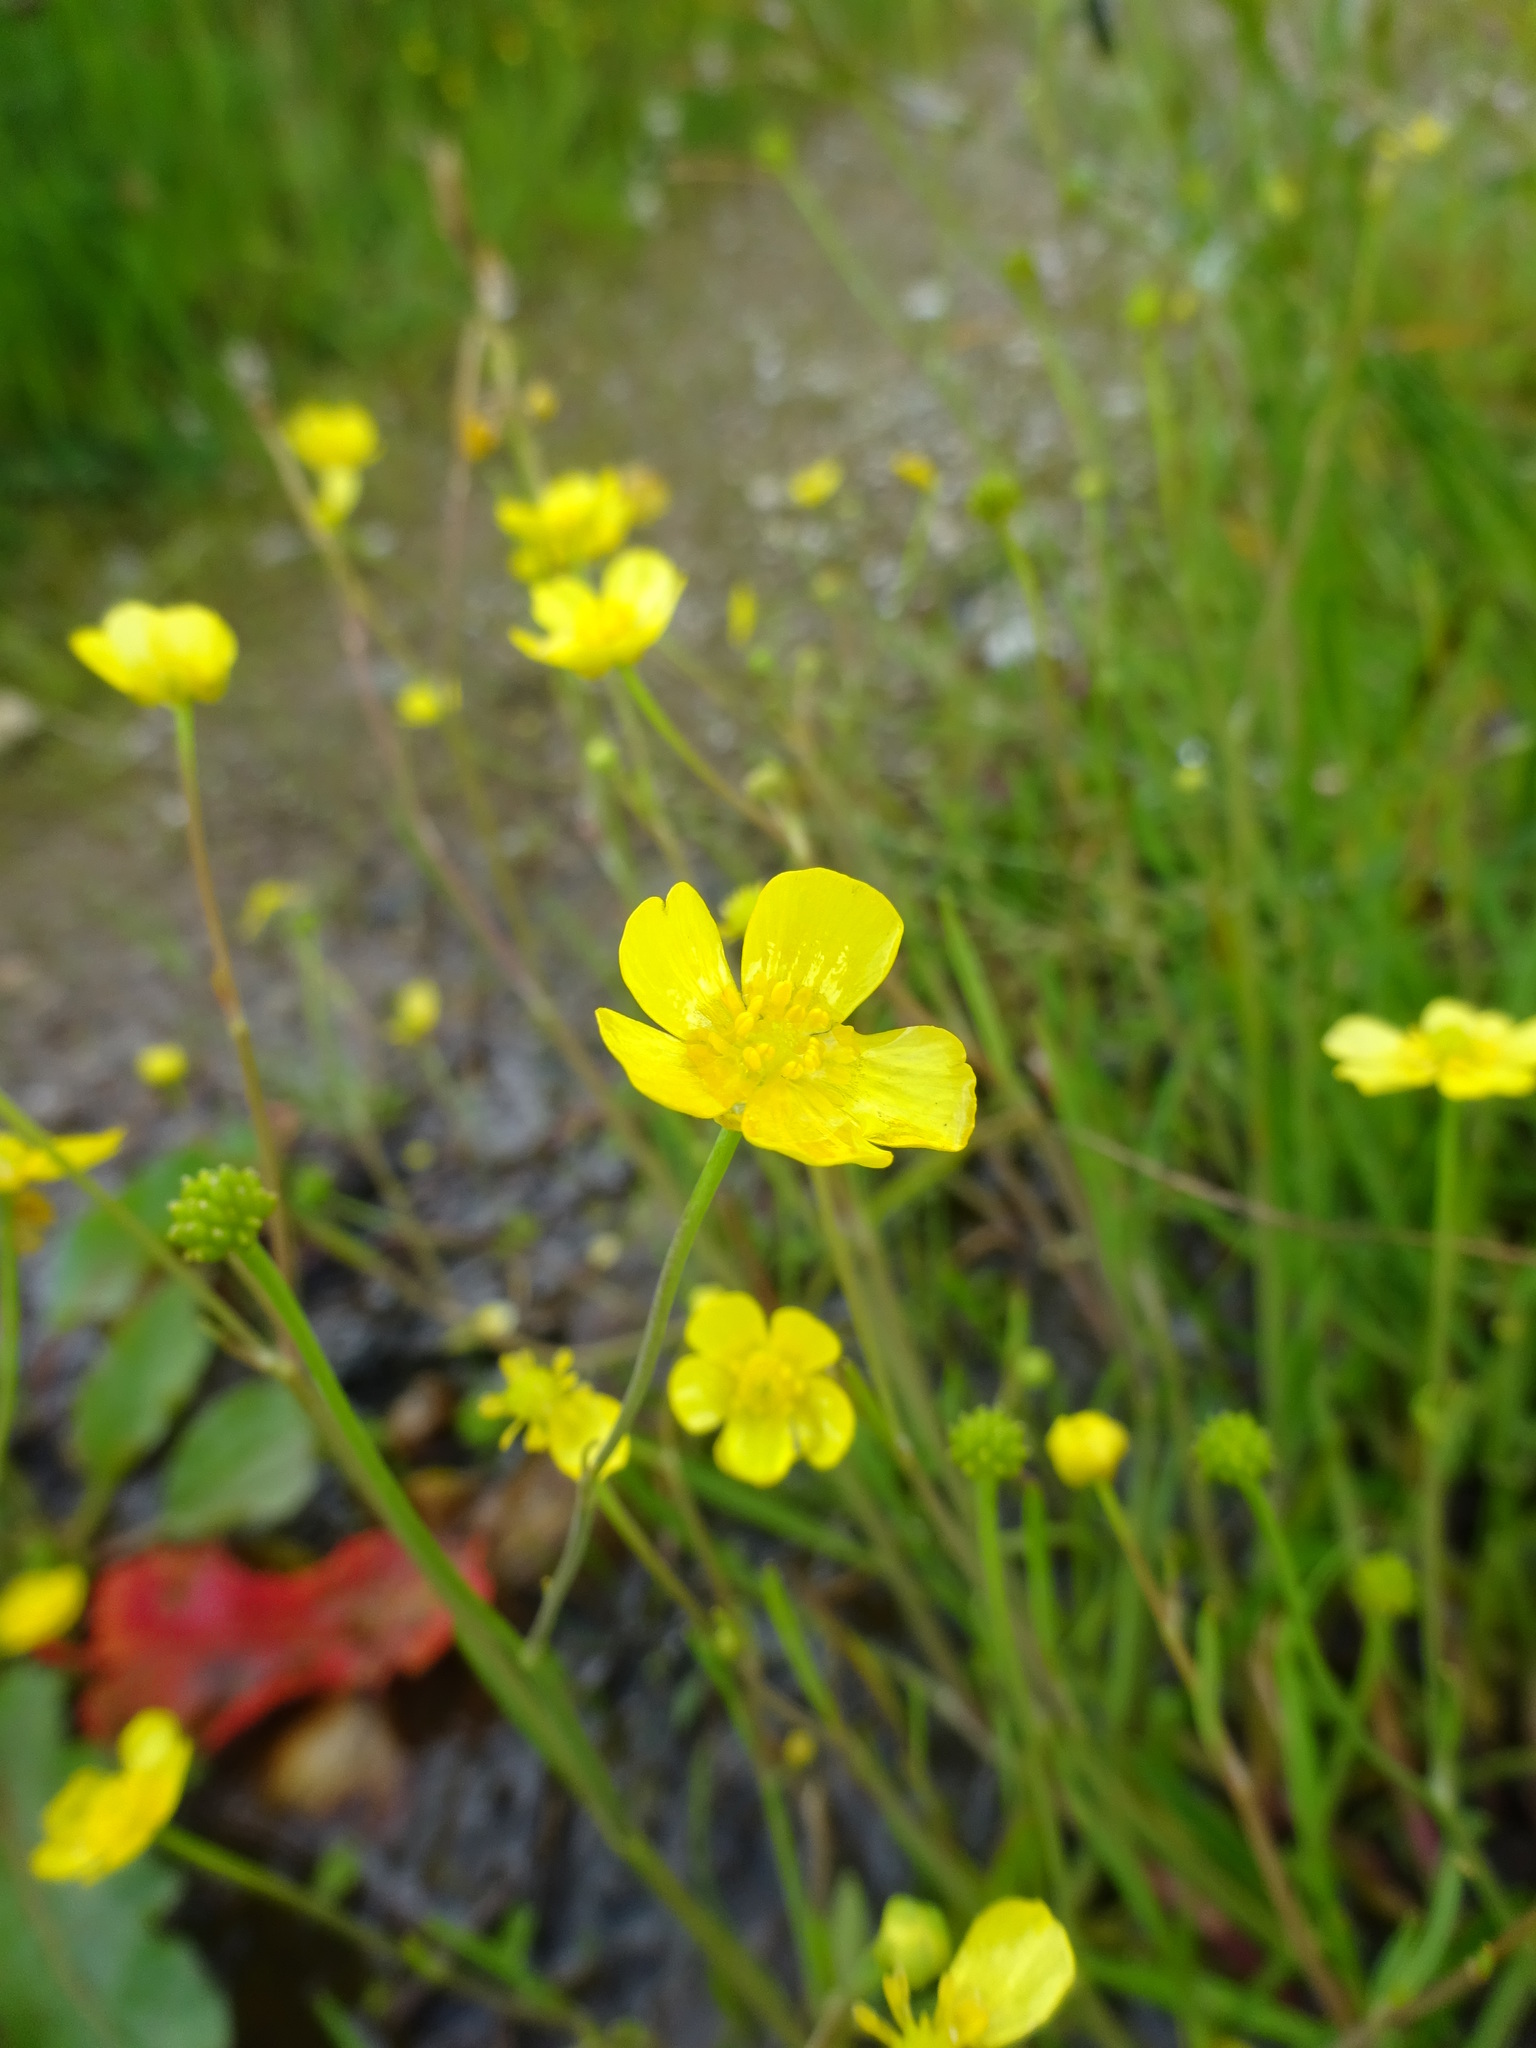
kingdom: Plantae
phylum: Tracheophyta
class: Magnoliopsida
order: Ranunculales
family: Ranunculaceae
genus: Ranunculus
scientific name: Ranunculus flammula
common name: Lesser spearwort
